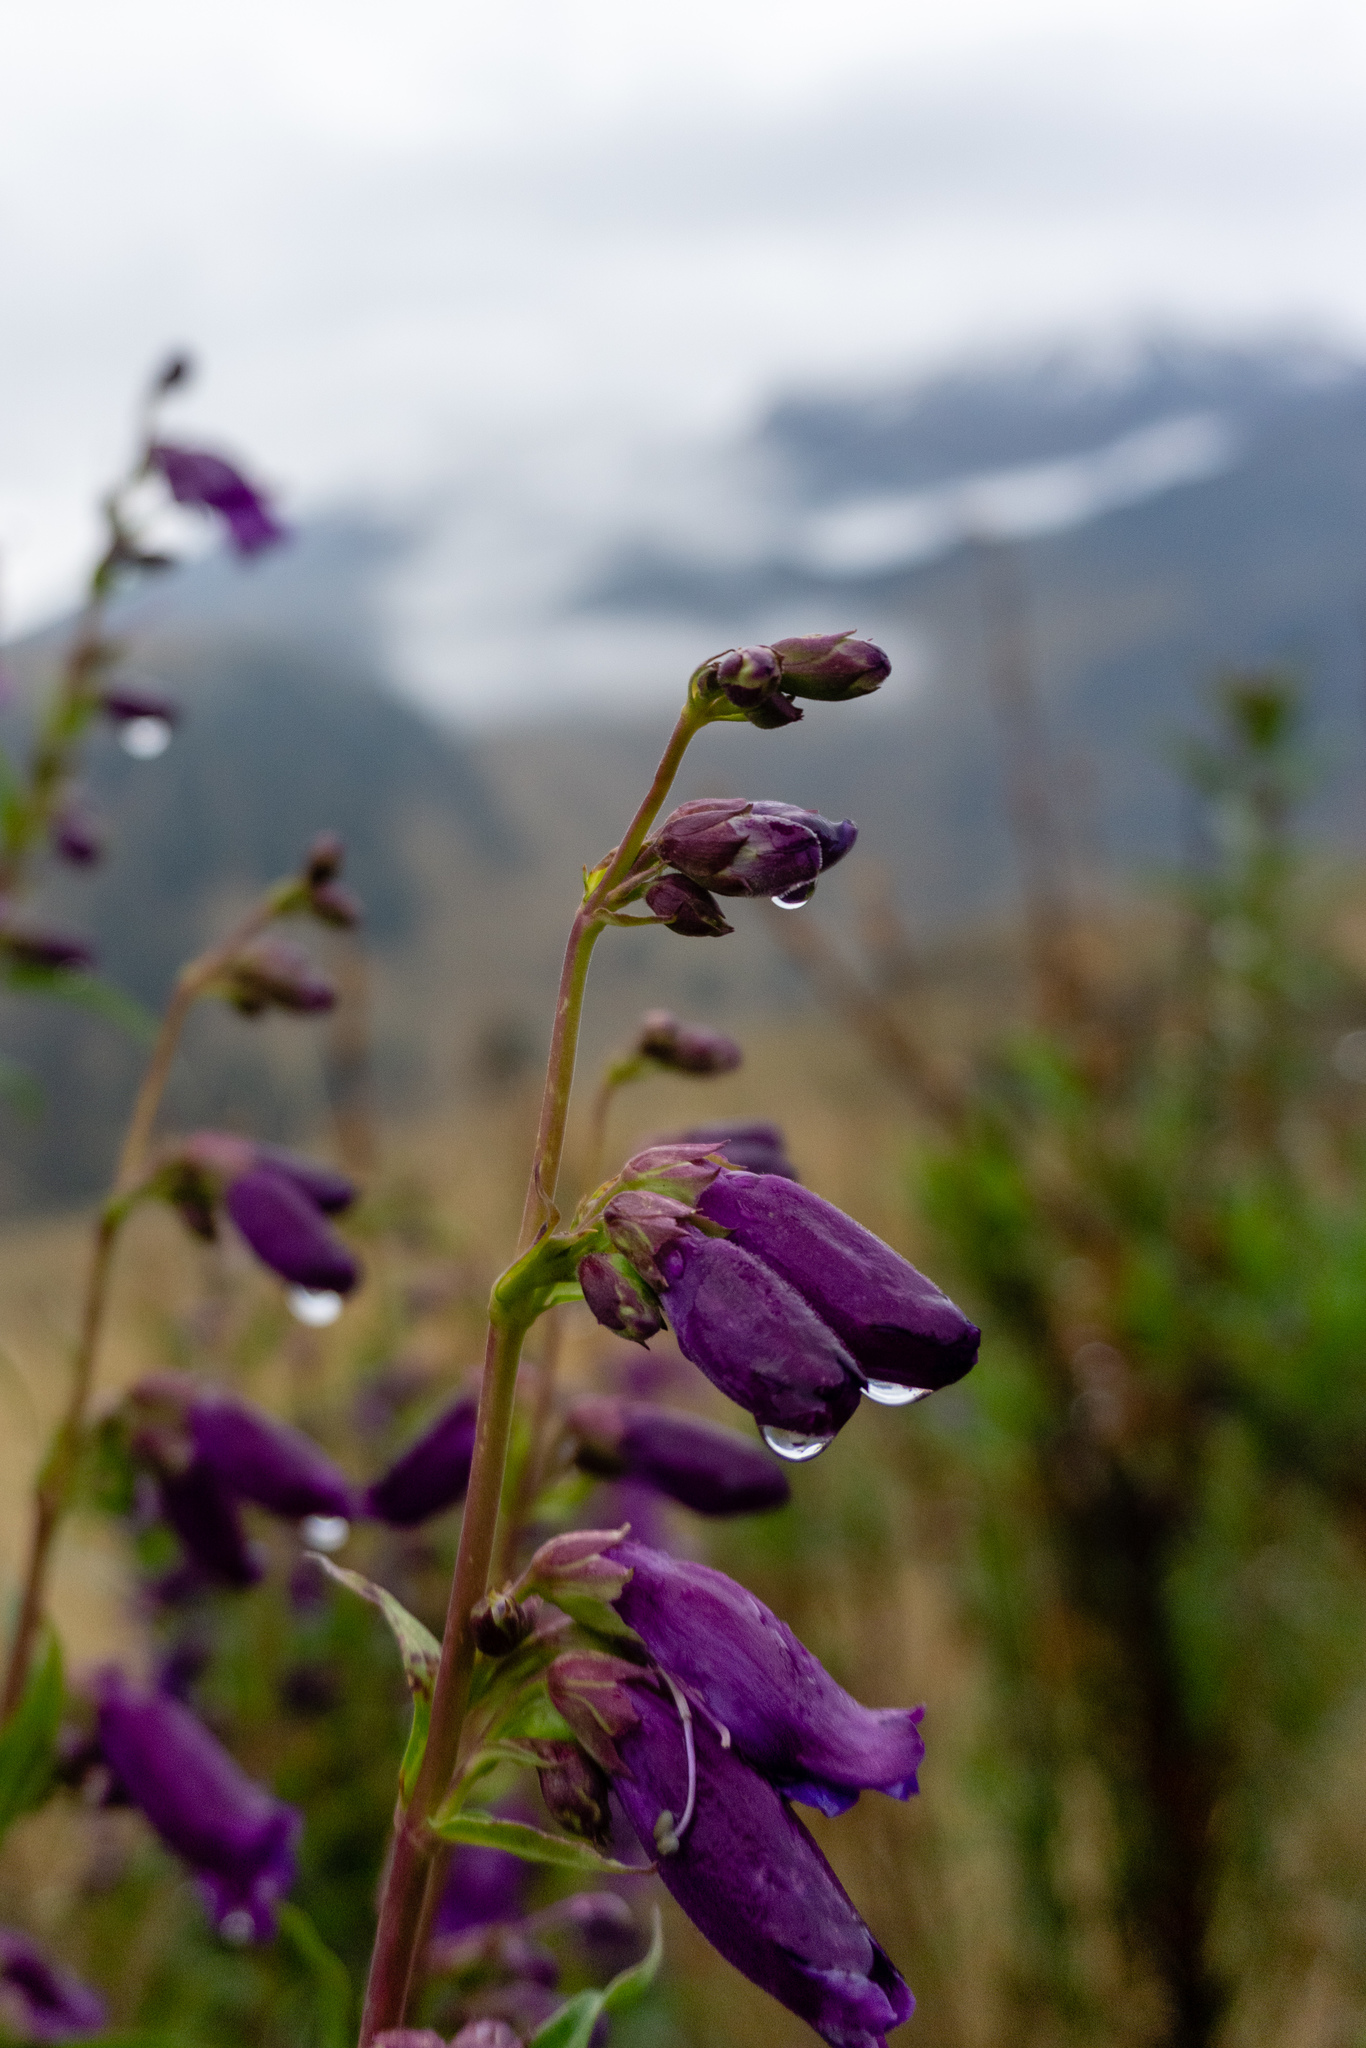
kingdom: Plantae
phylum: Tracheophyta
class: Magnoliopsida
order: Lamiales
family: Plantaginaceae
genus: Penstemon
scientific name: Penstemon gentianoides
